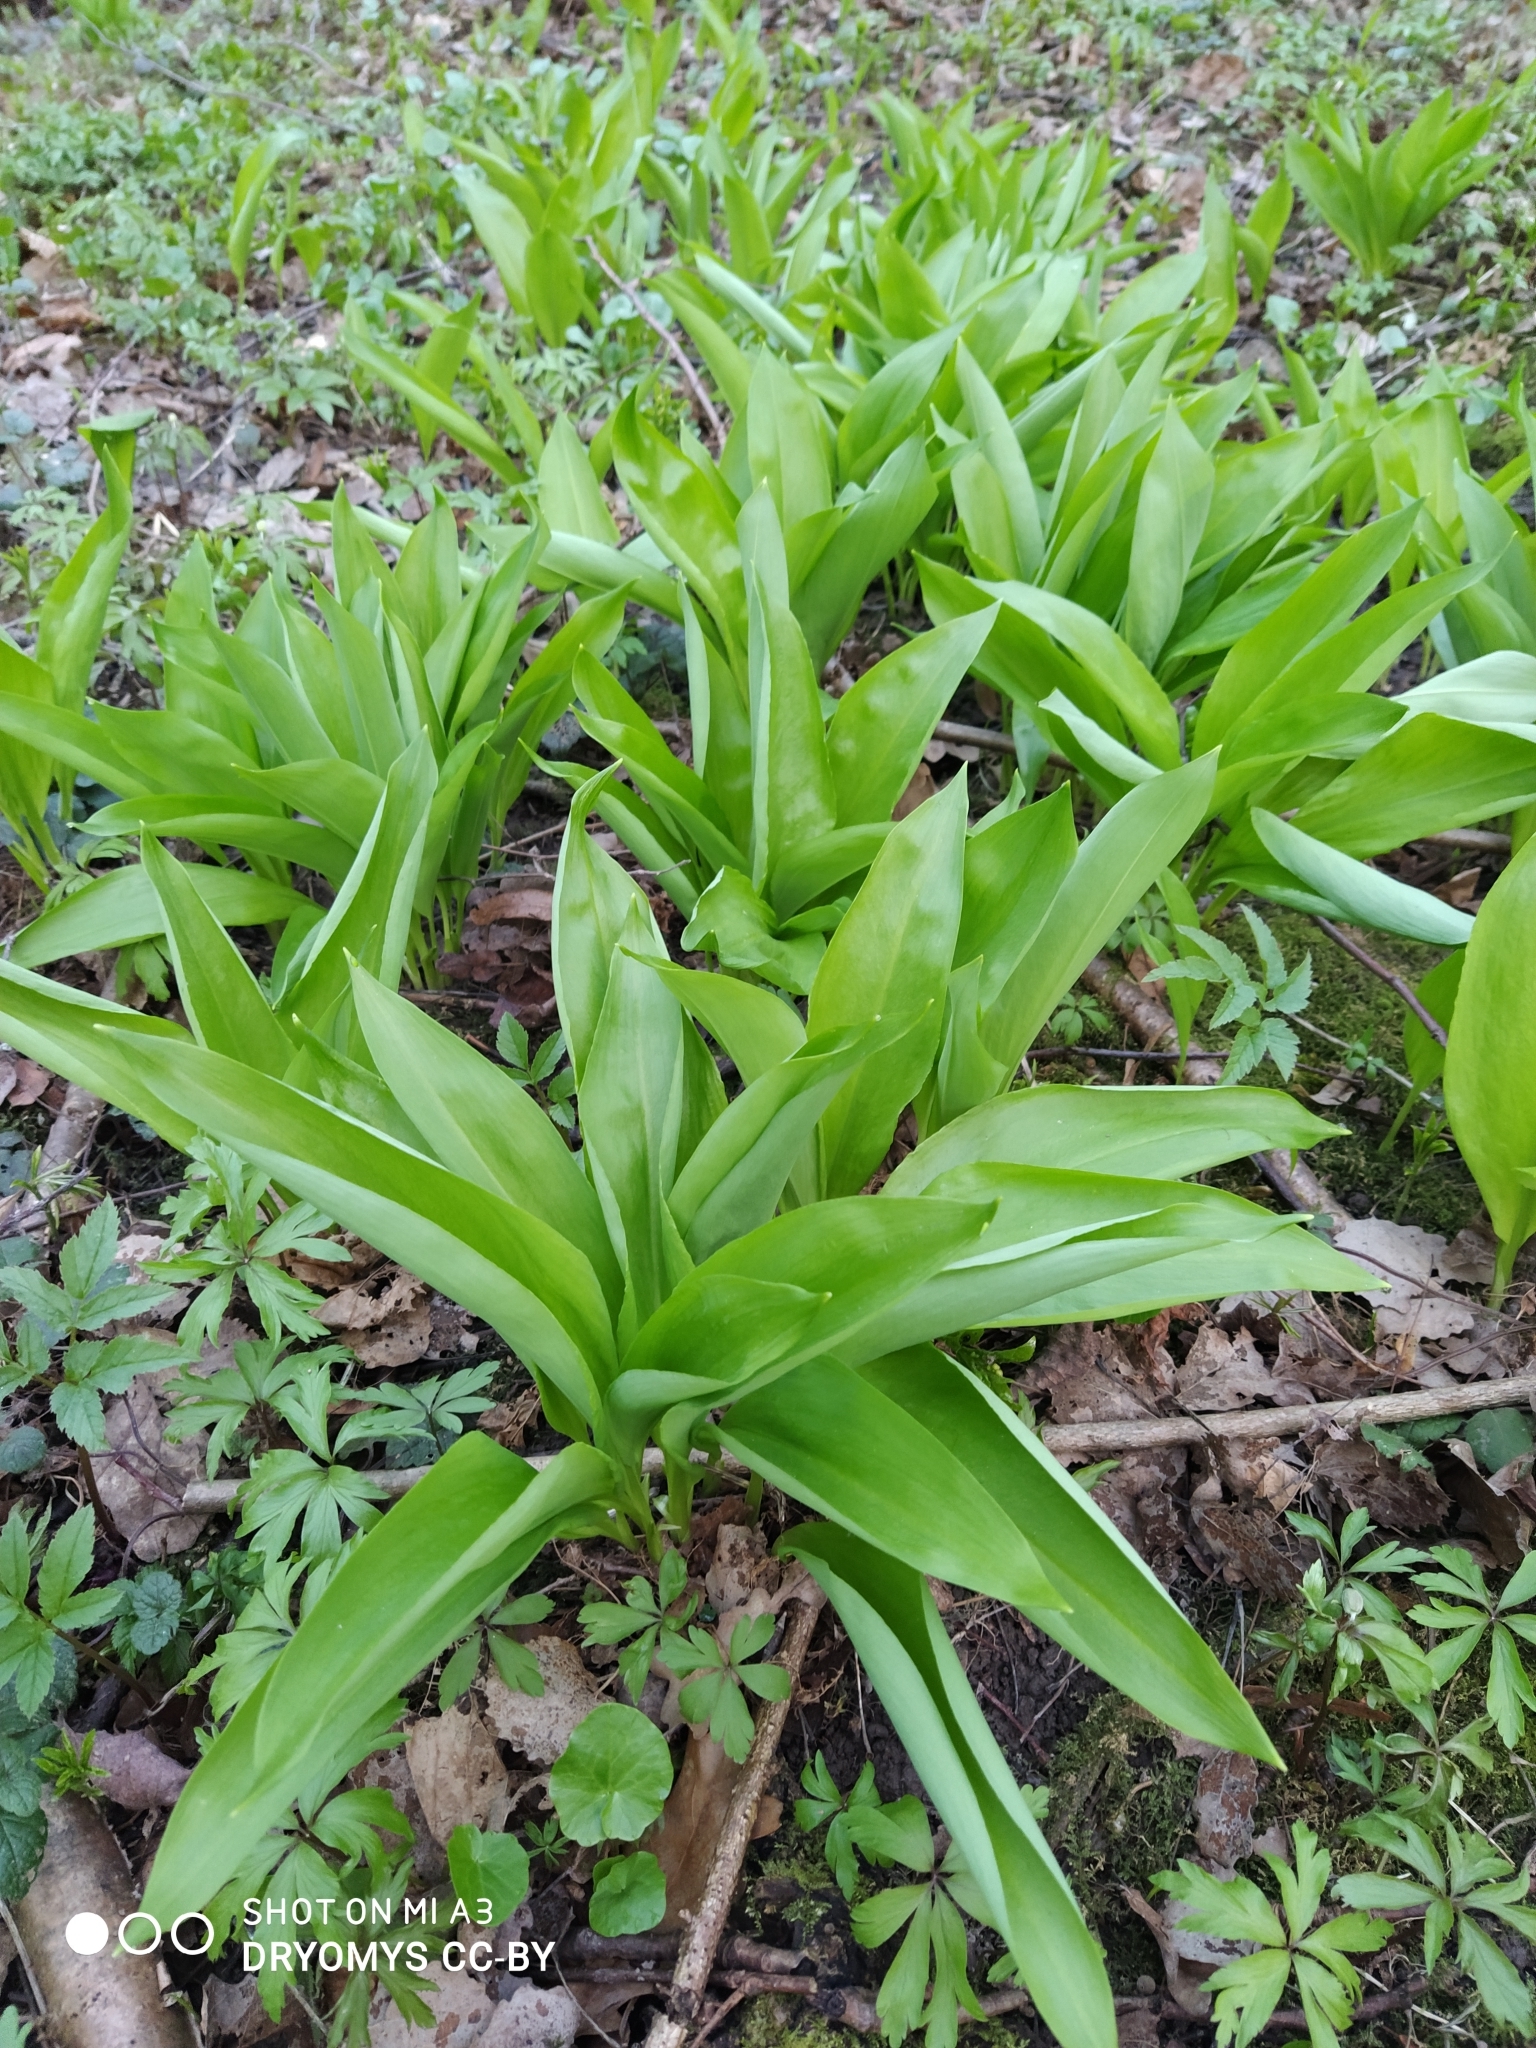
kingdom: Plantae
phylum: Tracheophyta
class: Liliopsida
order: Asparagales
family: Amaryllidaceae
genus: Allium
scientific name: Allium ursinum
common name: Ramsons
